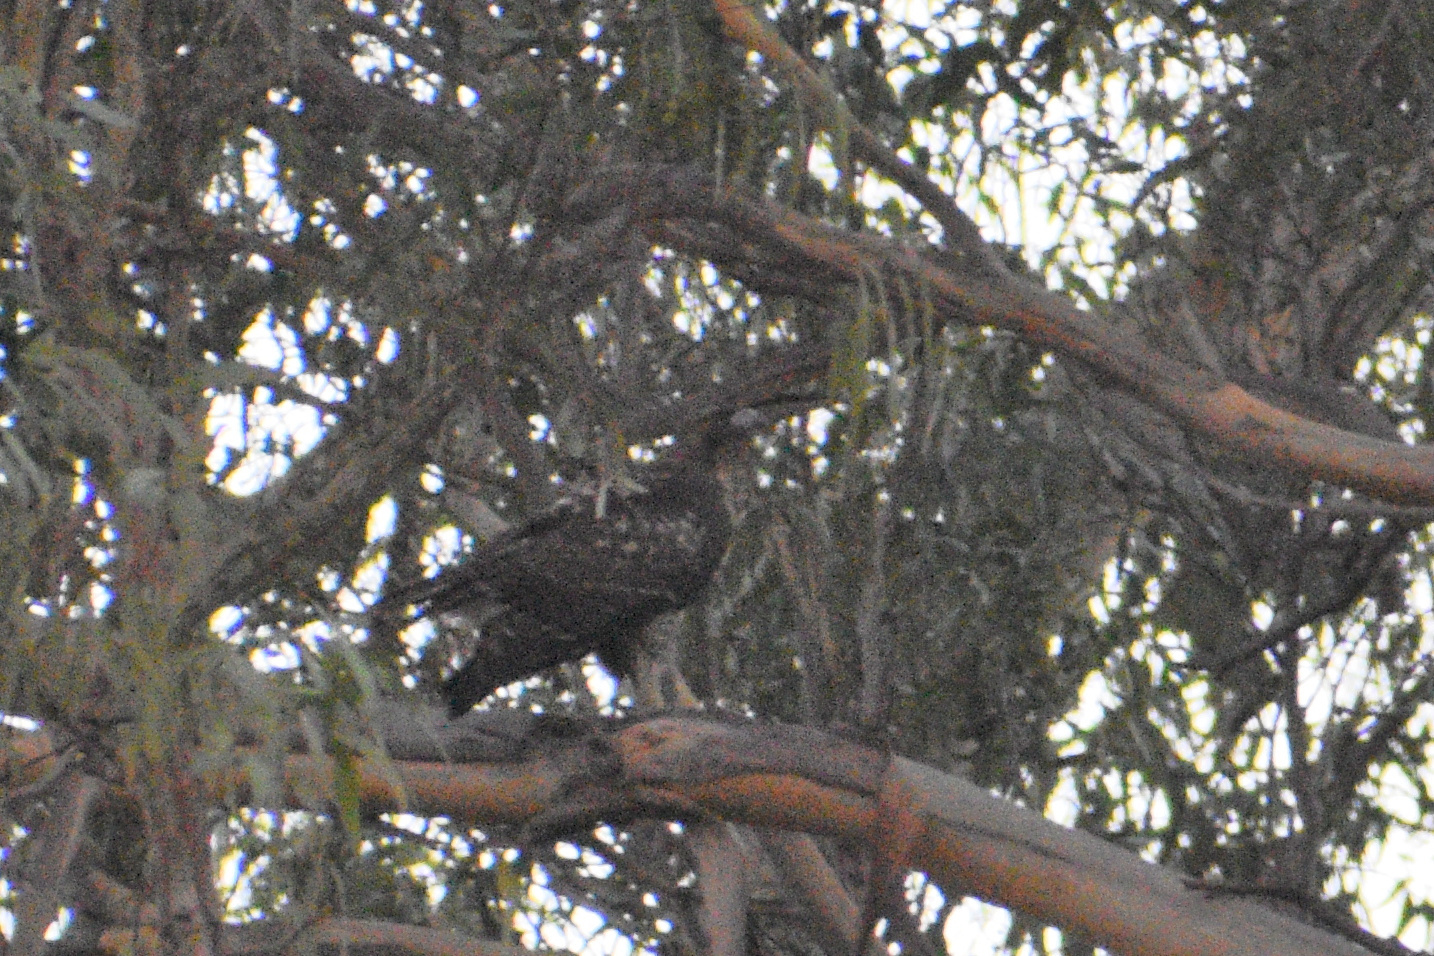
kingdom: Animalia
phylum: Chordata
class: Aves
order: Accipitriformes
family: Accipitridae
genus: Buteo
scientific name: Buteo jamaicensis
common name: Red-tailed hawk
